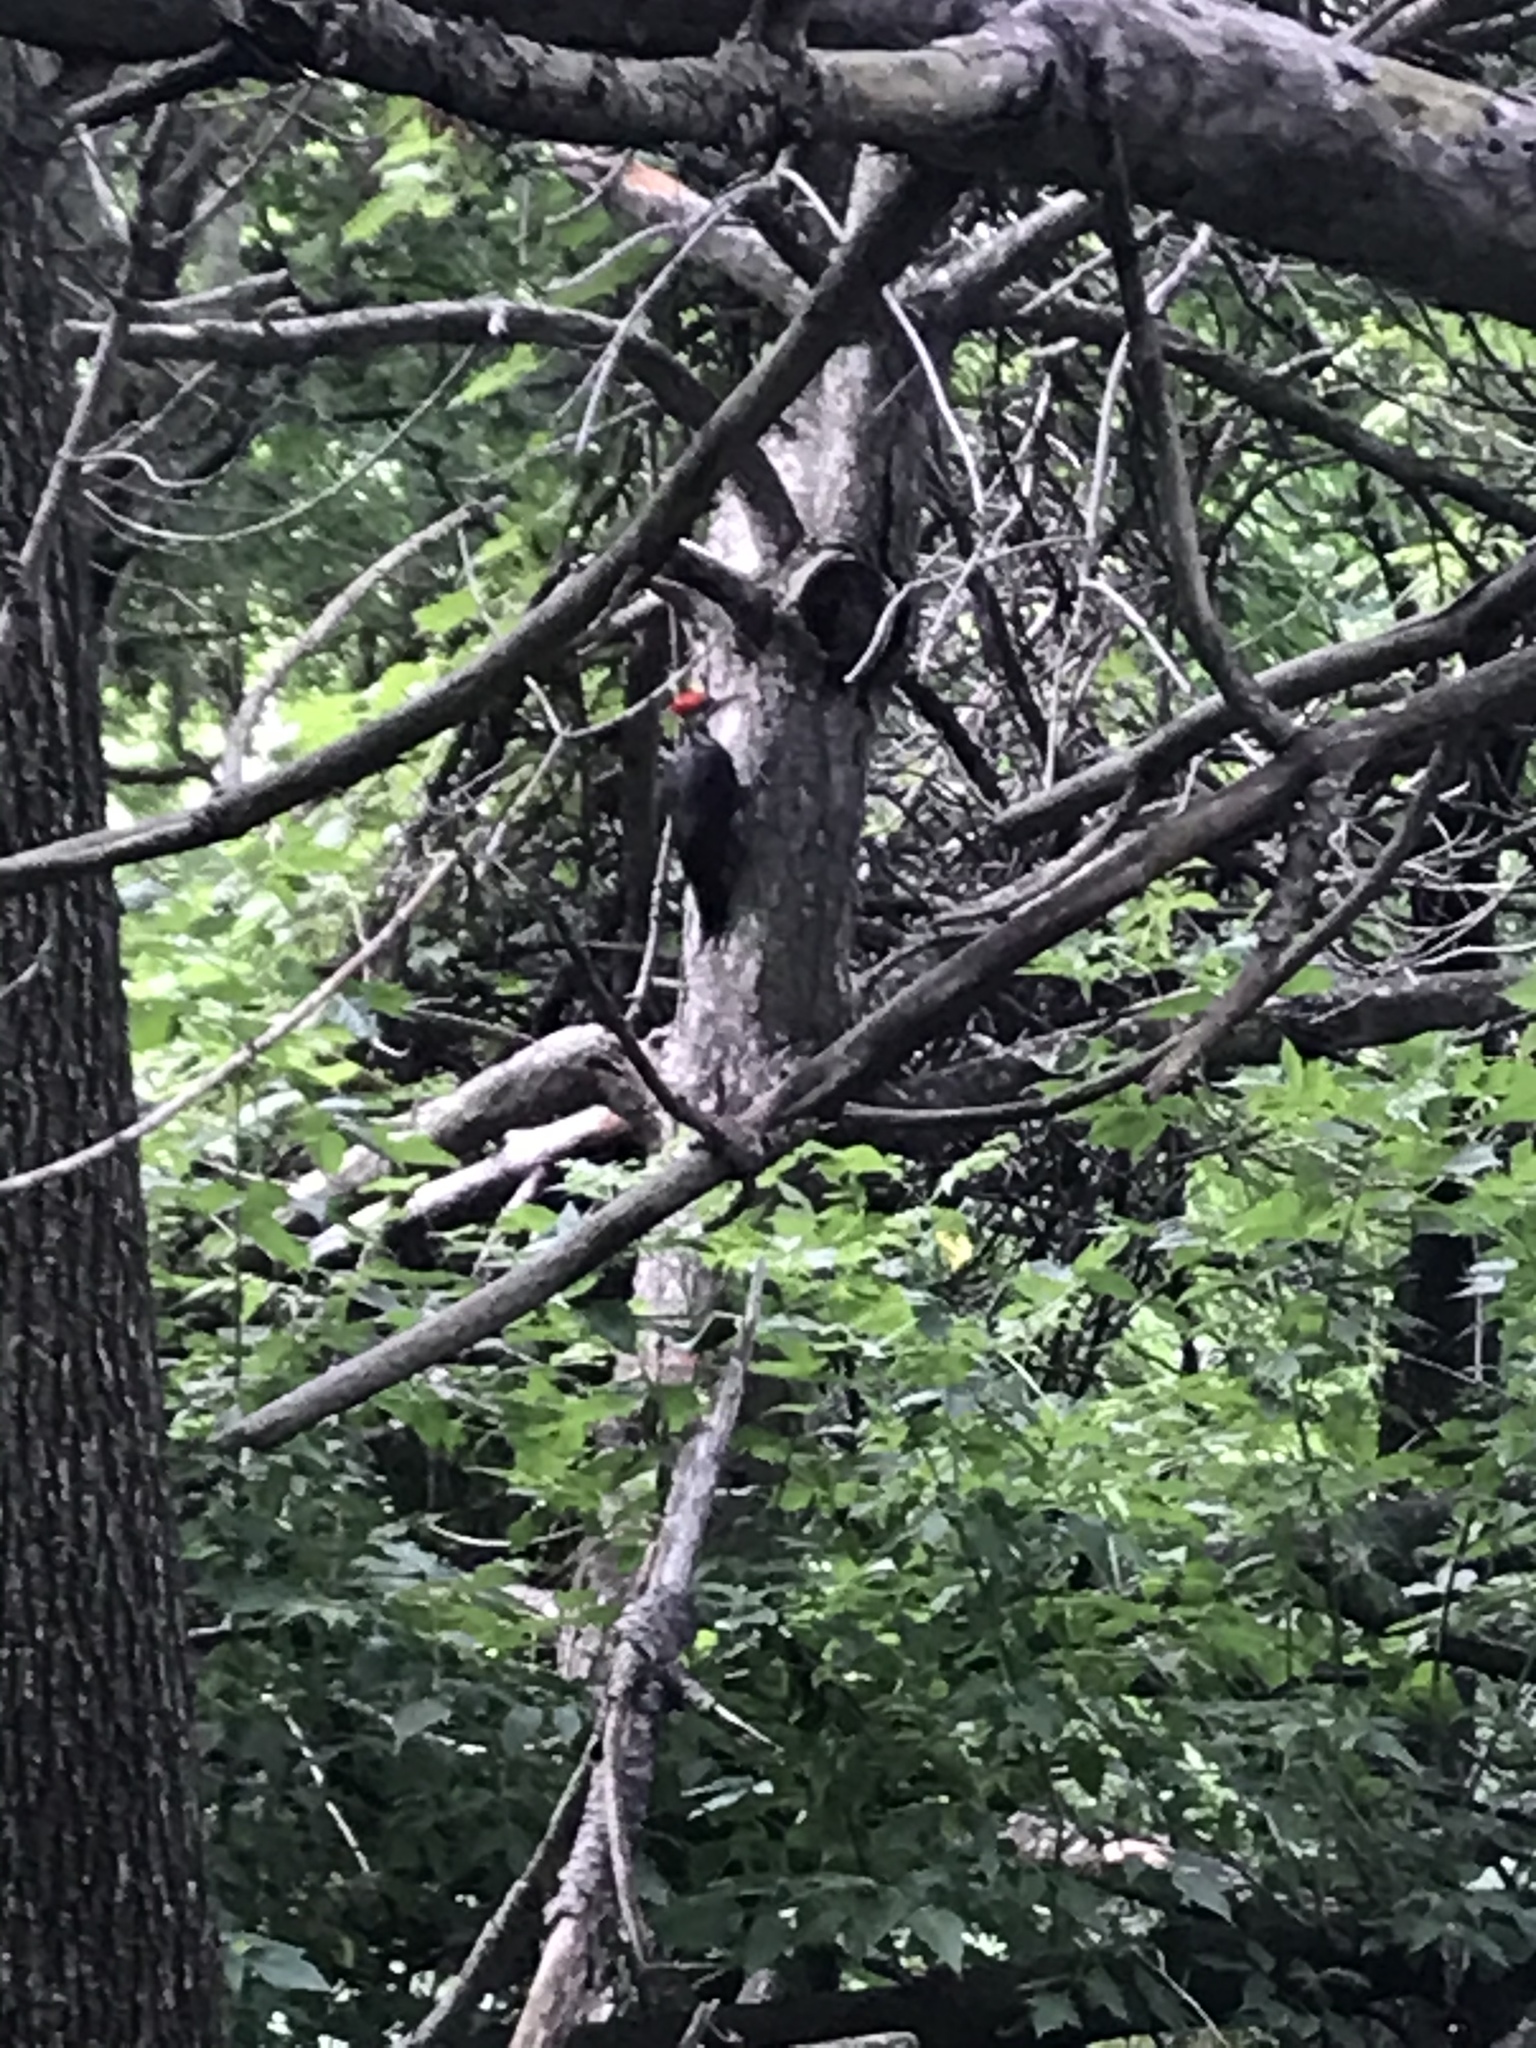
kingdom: Animalia
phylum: Chordata
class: Aves
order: Piciformes
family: Picidae
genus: Dryocopus
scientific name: Dryocopus pileatus
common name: Pileated woodpecker
